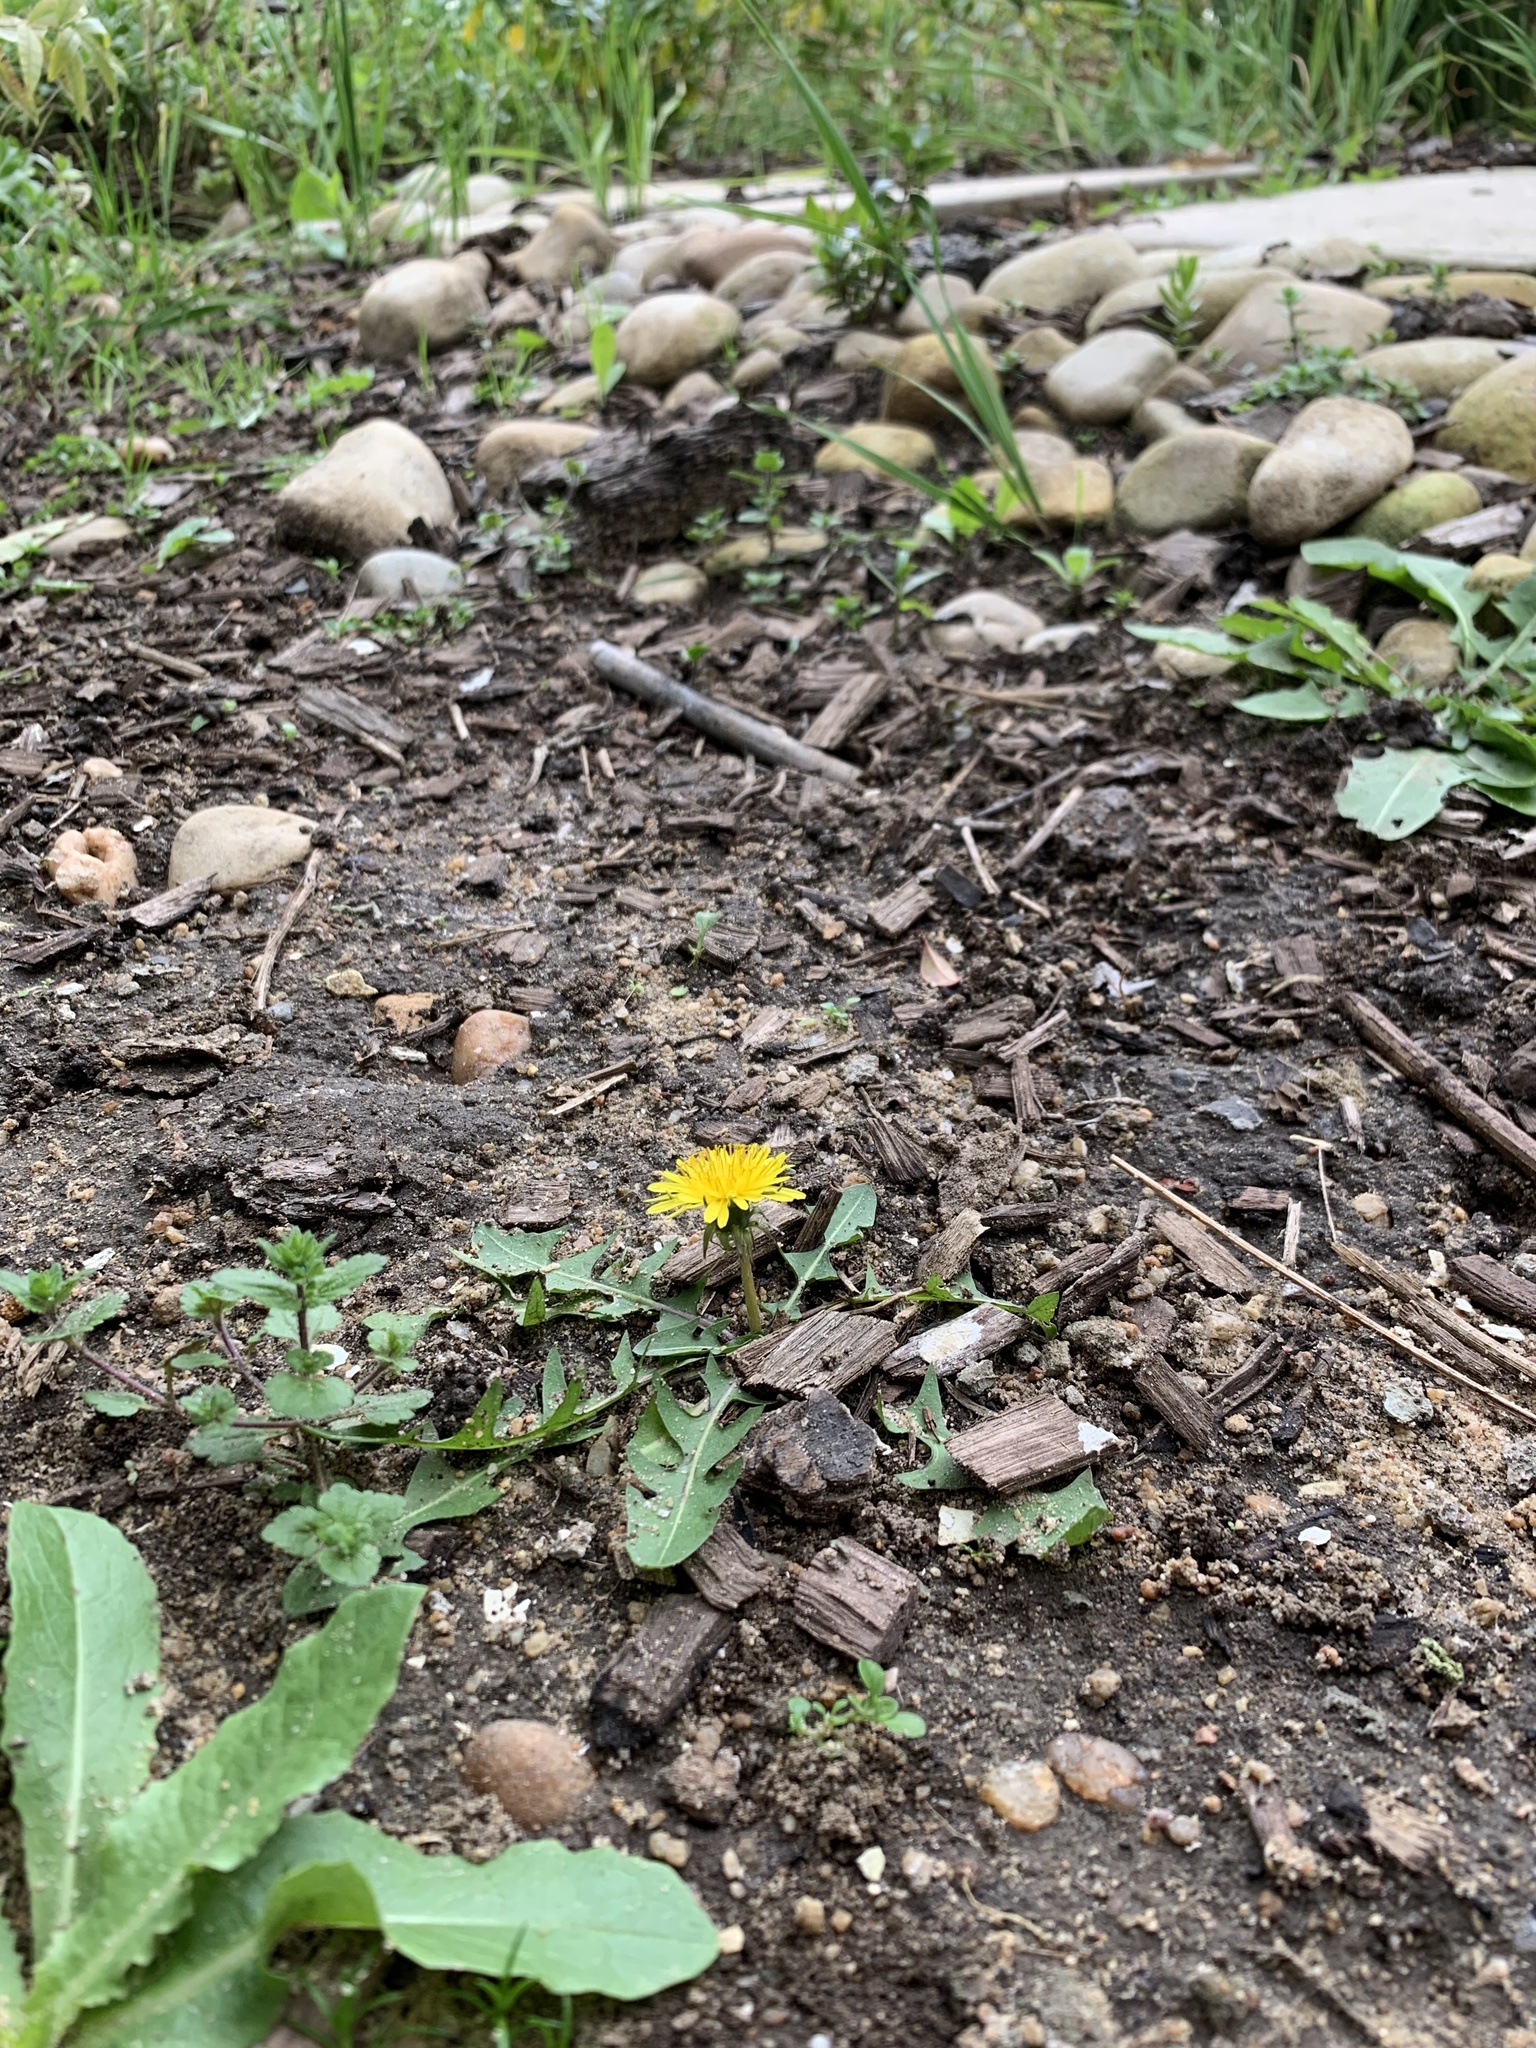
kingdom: Plantae
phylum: Tracheophyta
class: Magnoliopsida
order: Asterales
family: Asteraceae
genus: Taraxacum
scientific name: Taraxacum officinale
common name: Common dandelion
